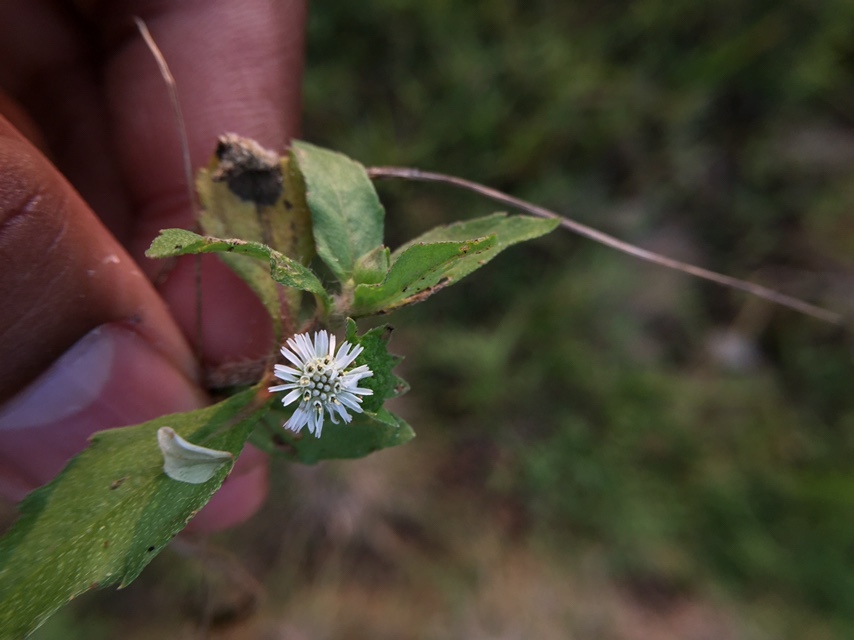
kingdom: Plantae
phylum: Tracheophyta
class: Magnoliopsida
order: Asterales
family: Asteraceae
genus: Eclipta
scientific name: Eclipta prostrata
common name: False daisy
